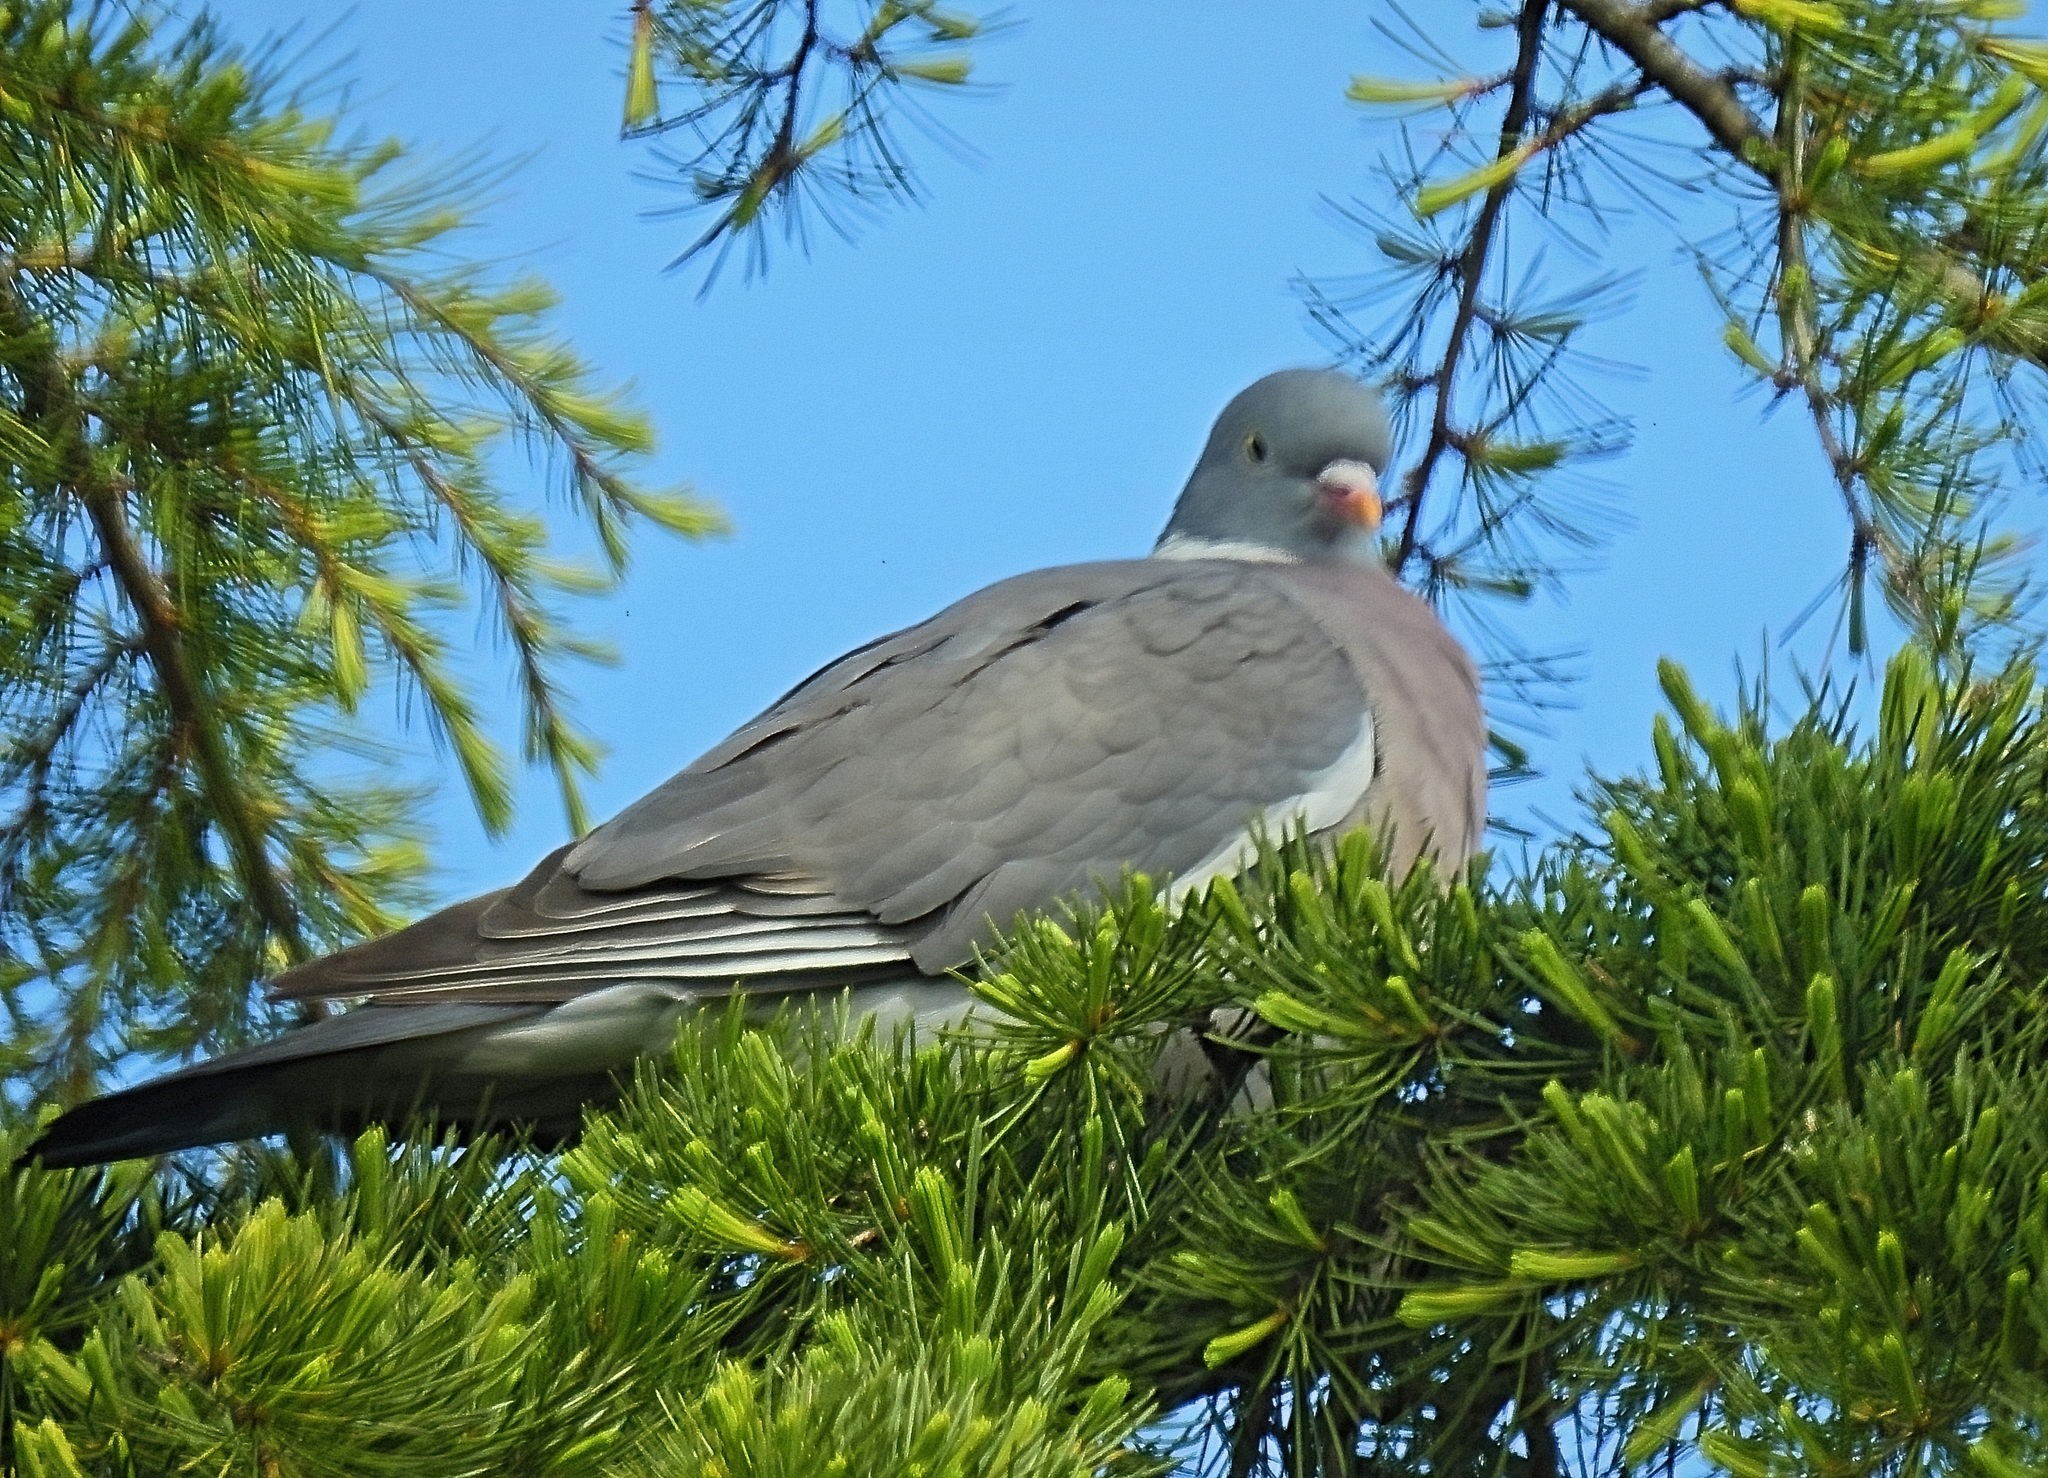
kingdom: Animalia
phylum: Chordata
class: Aves
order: Columbiformes
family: Columbidae
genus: Columba
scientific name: Columba palumbus
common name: Common wood pigeon
